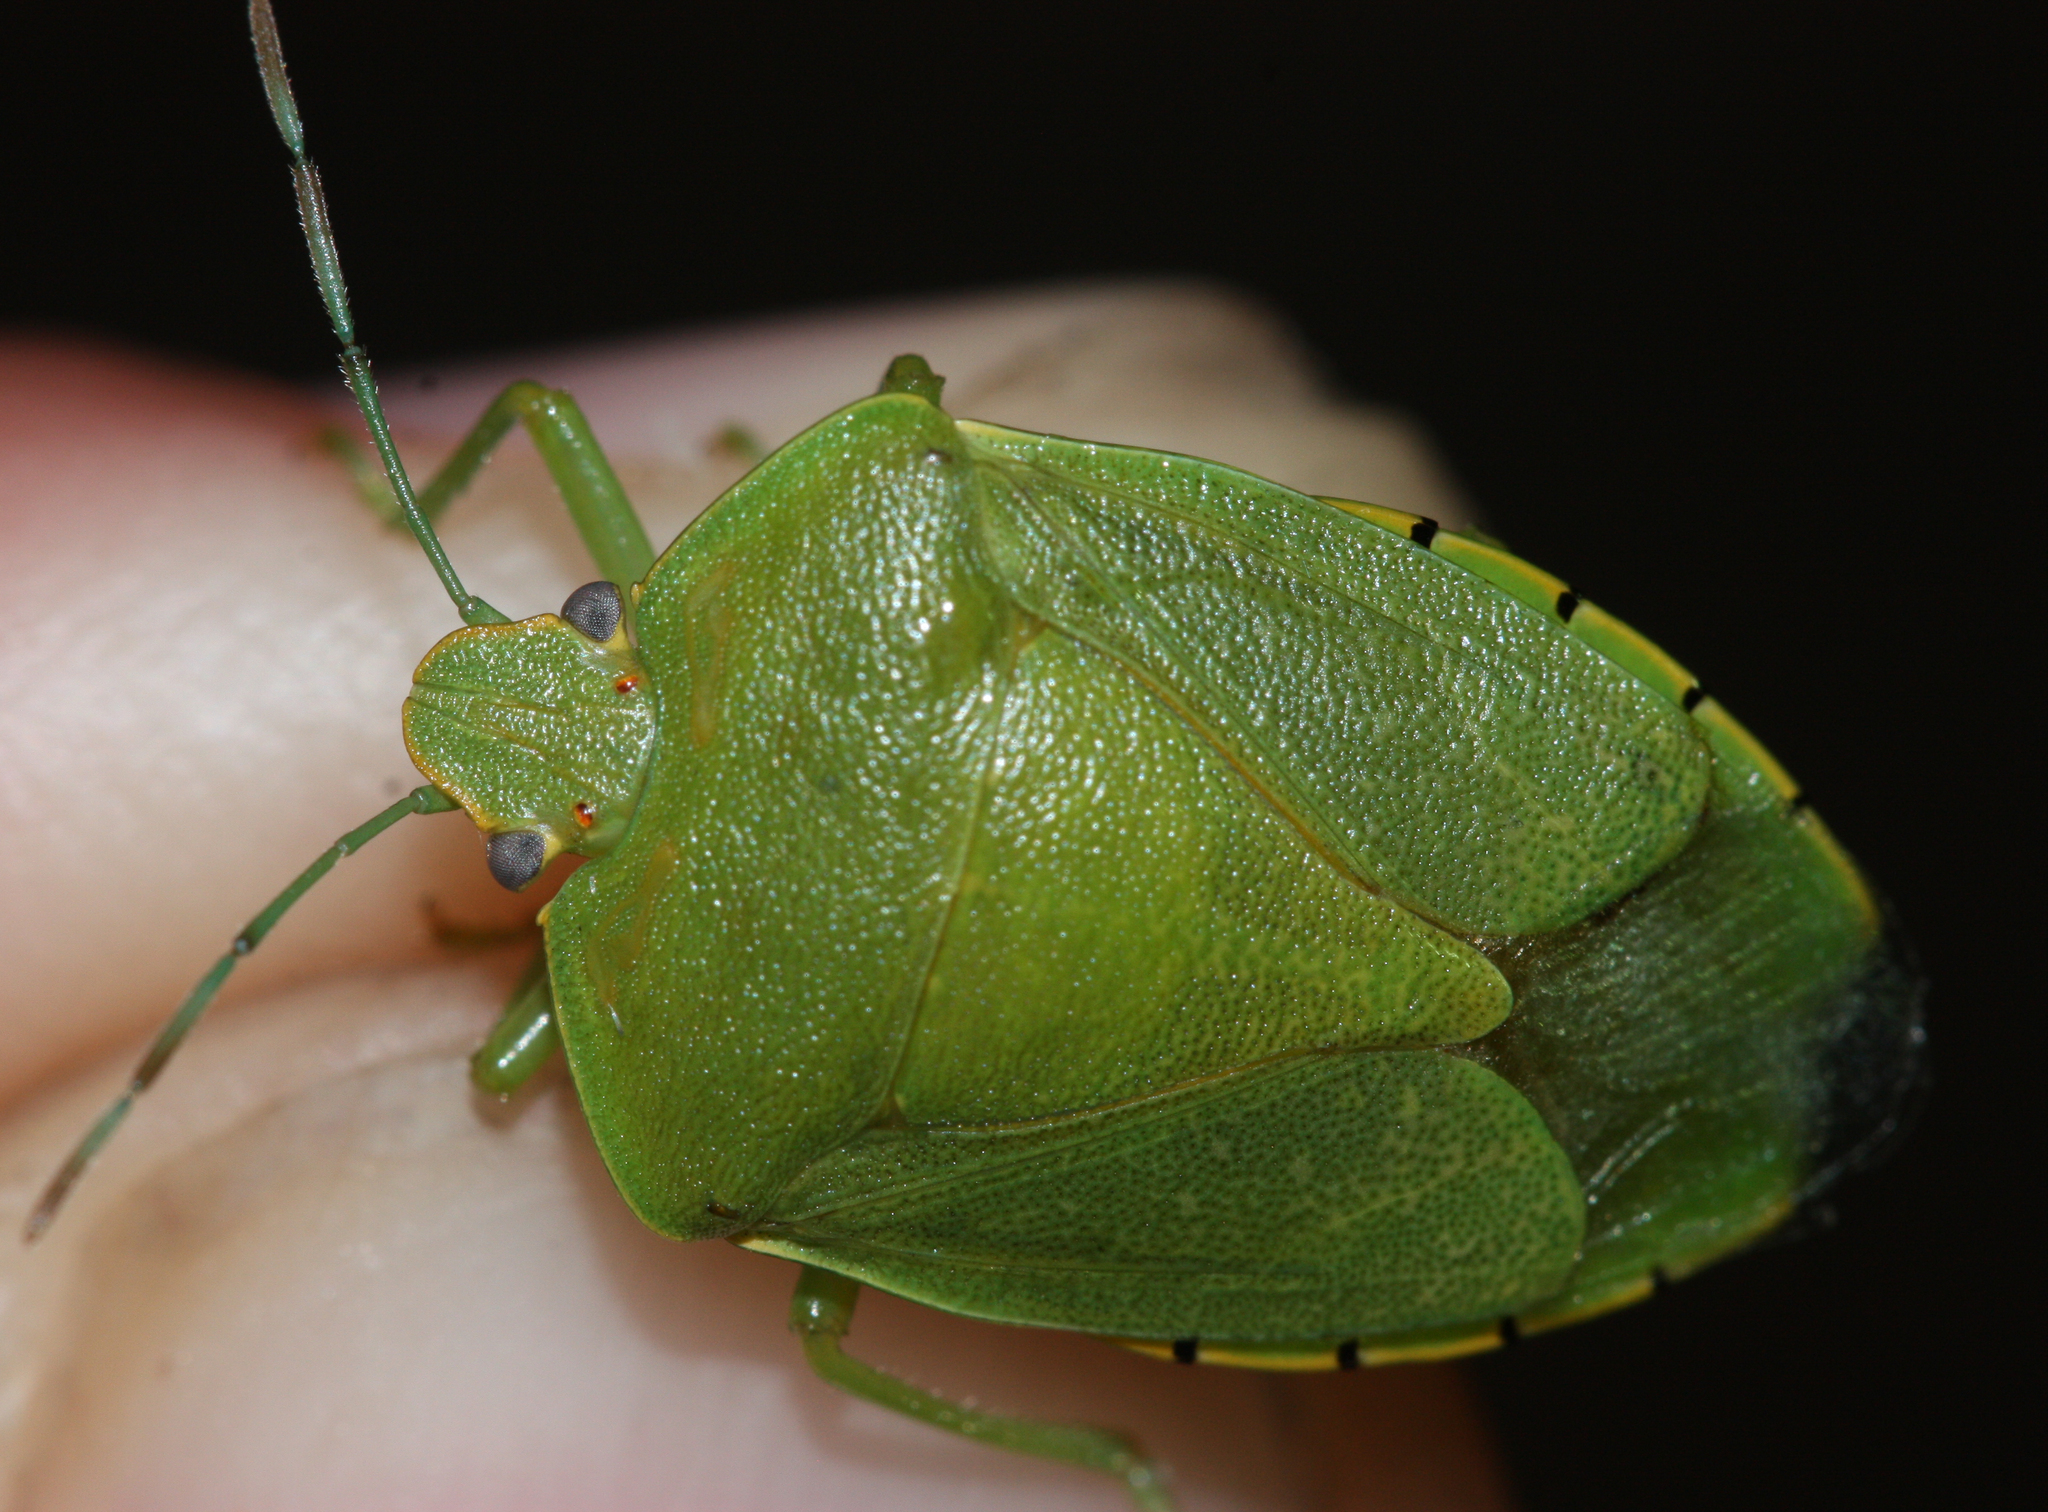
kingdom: Animalia
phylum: Arthropoda
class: Insecta
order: Hemiptera
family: Pentatomidae
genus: Chinavia
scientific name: Chinavia hilaris
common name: Green stink bug
